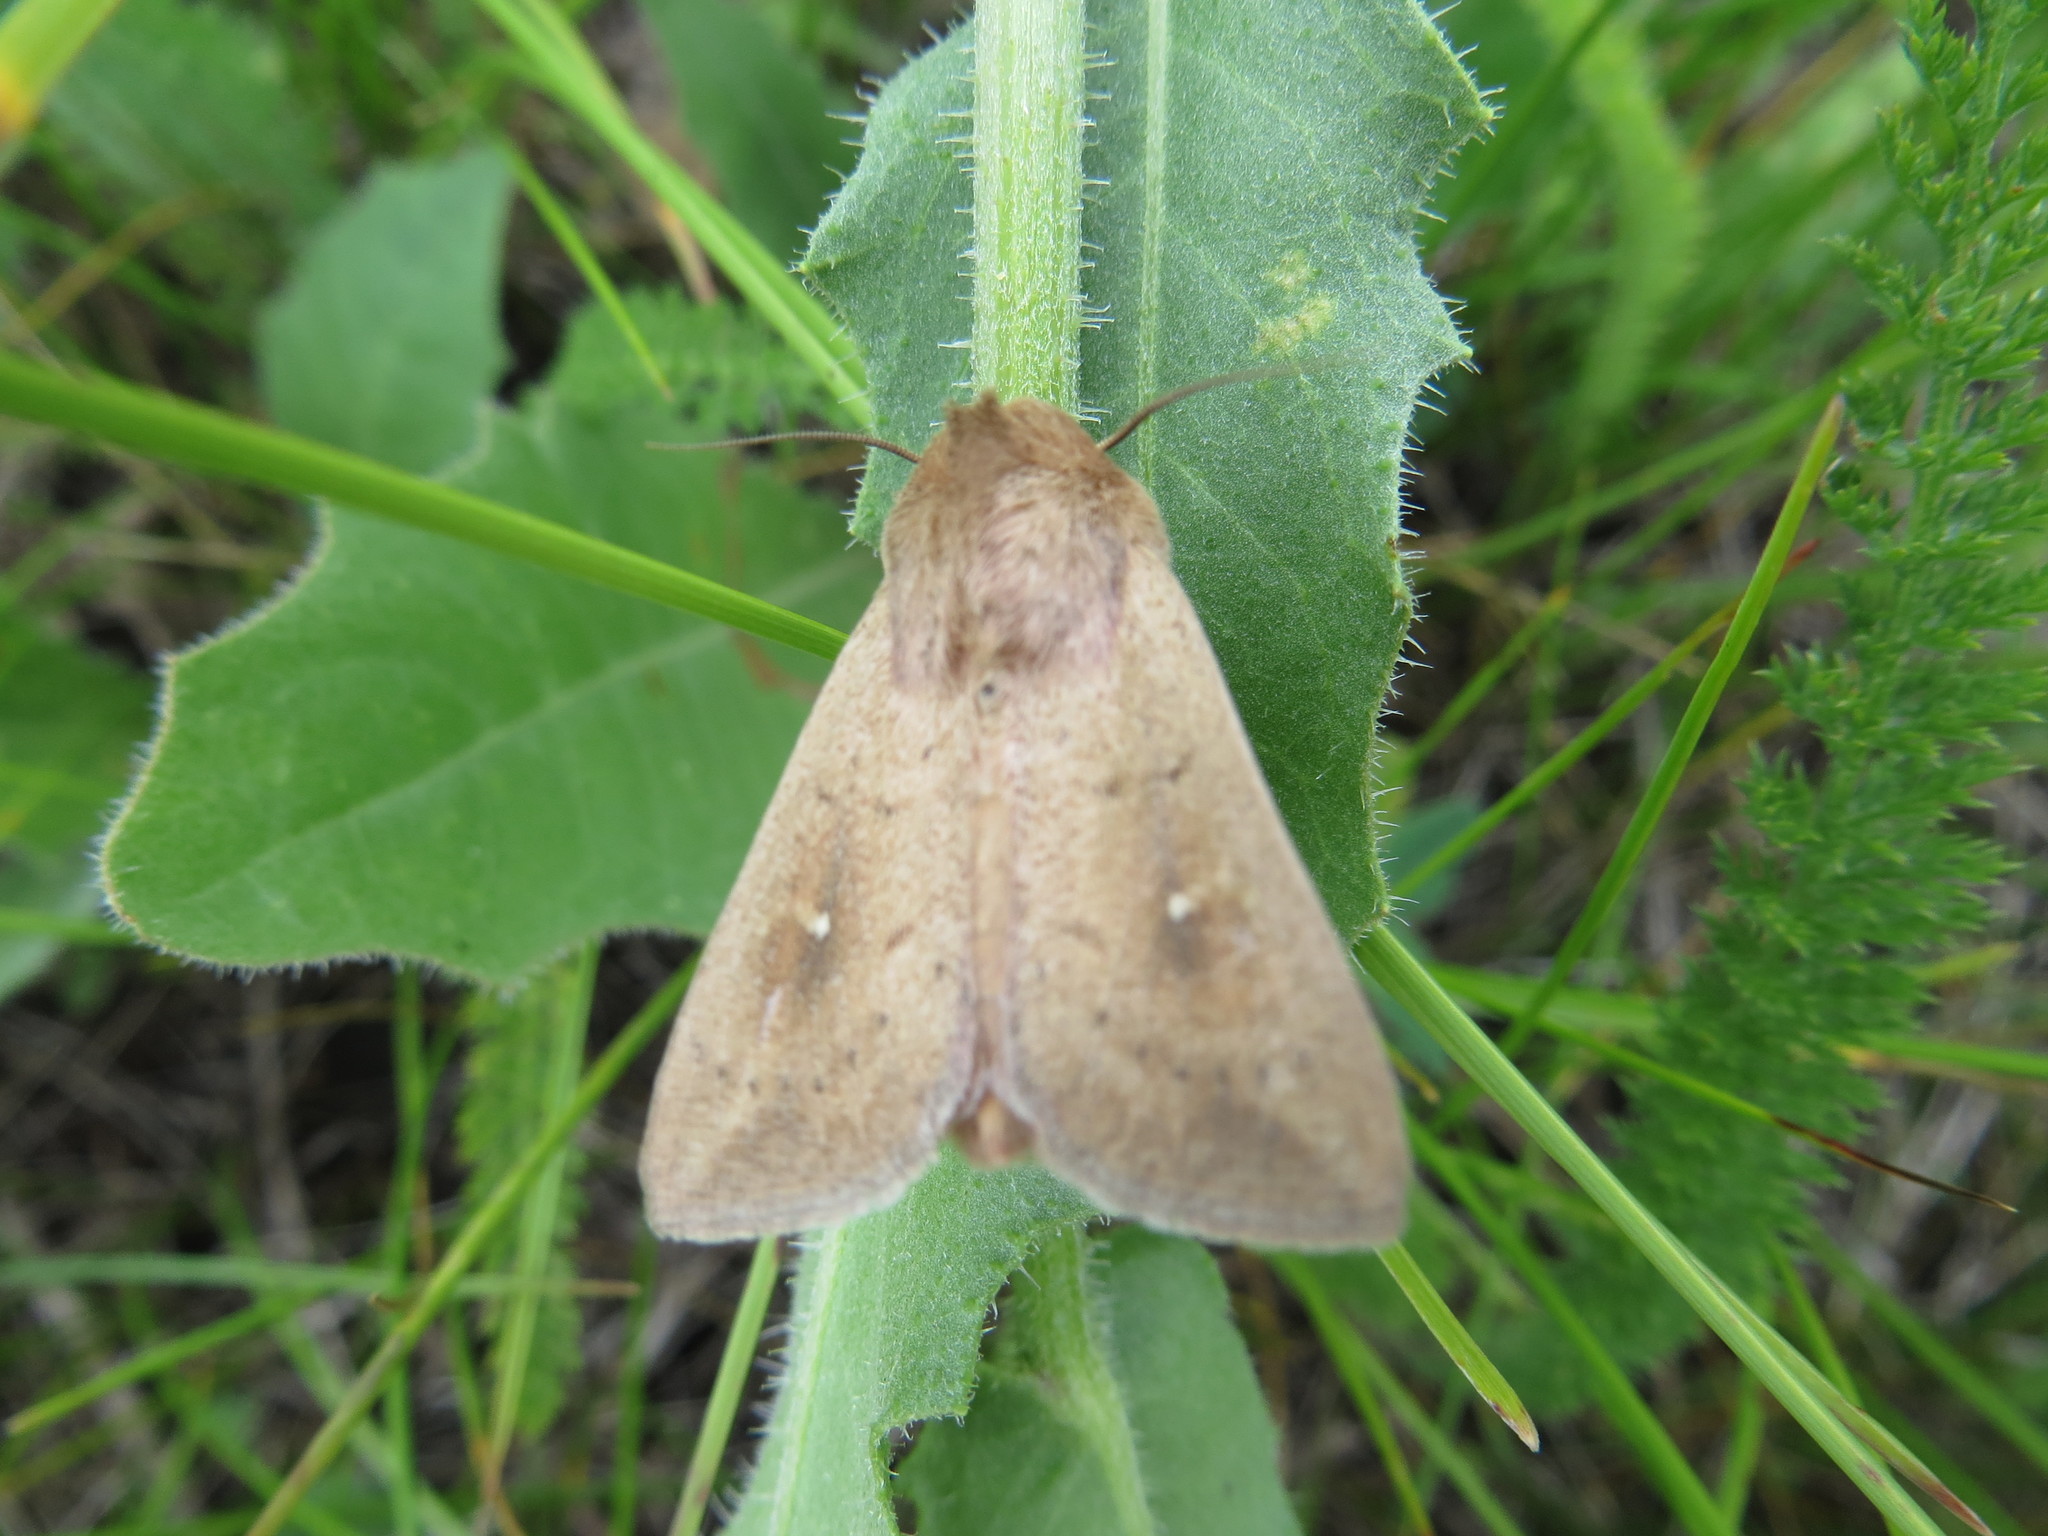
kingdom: Animalia
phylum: Arthropoda
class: Insecta
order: Lepidoptera
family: Noctuidae
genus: Mythimna
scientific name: Mythimna ferrago
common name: Clay
